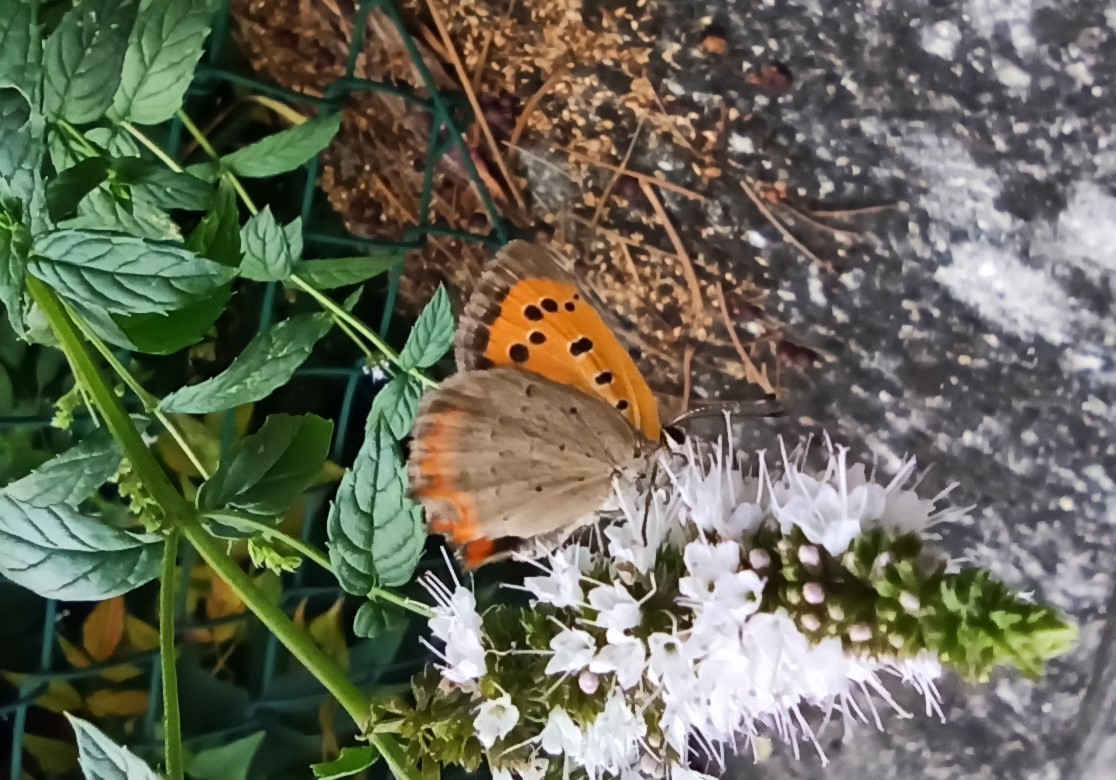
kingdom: Animalia
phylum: Arthropoda
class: Insecta
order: Lepidoptera
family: Lycaenidae
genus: Lycaena
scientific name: Lycaena phlaeas
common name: Small copper
